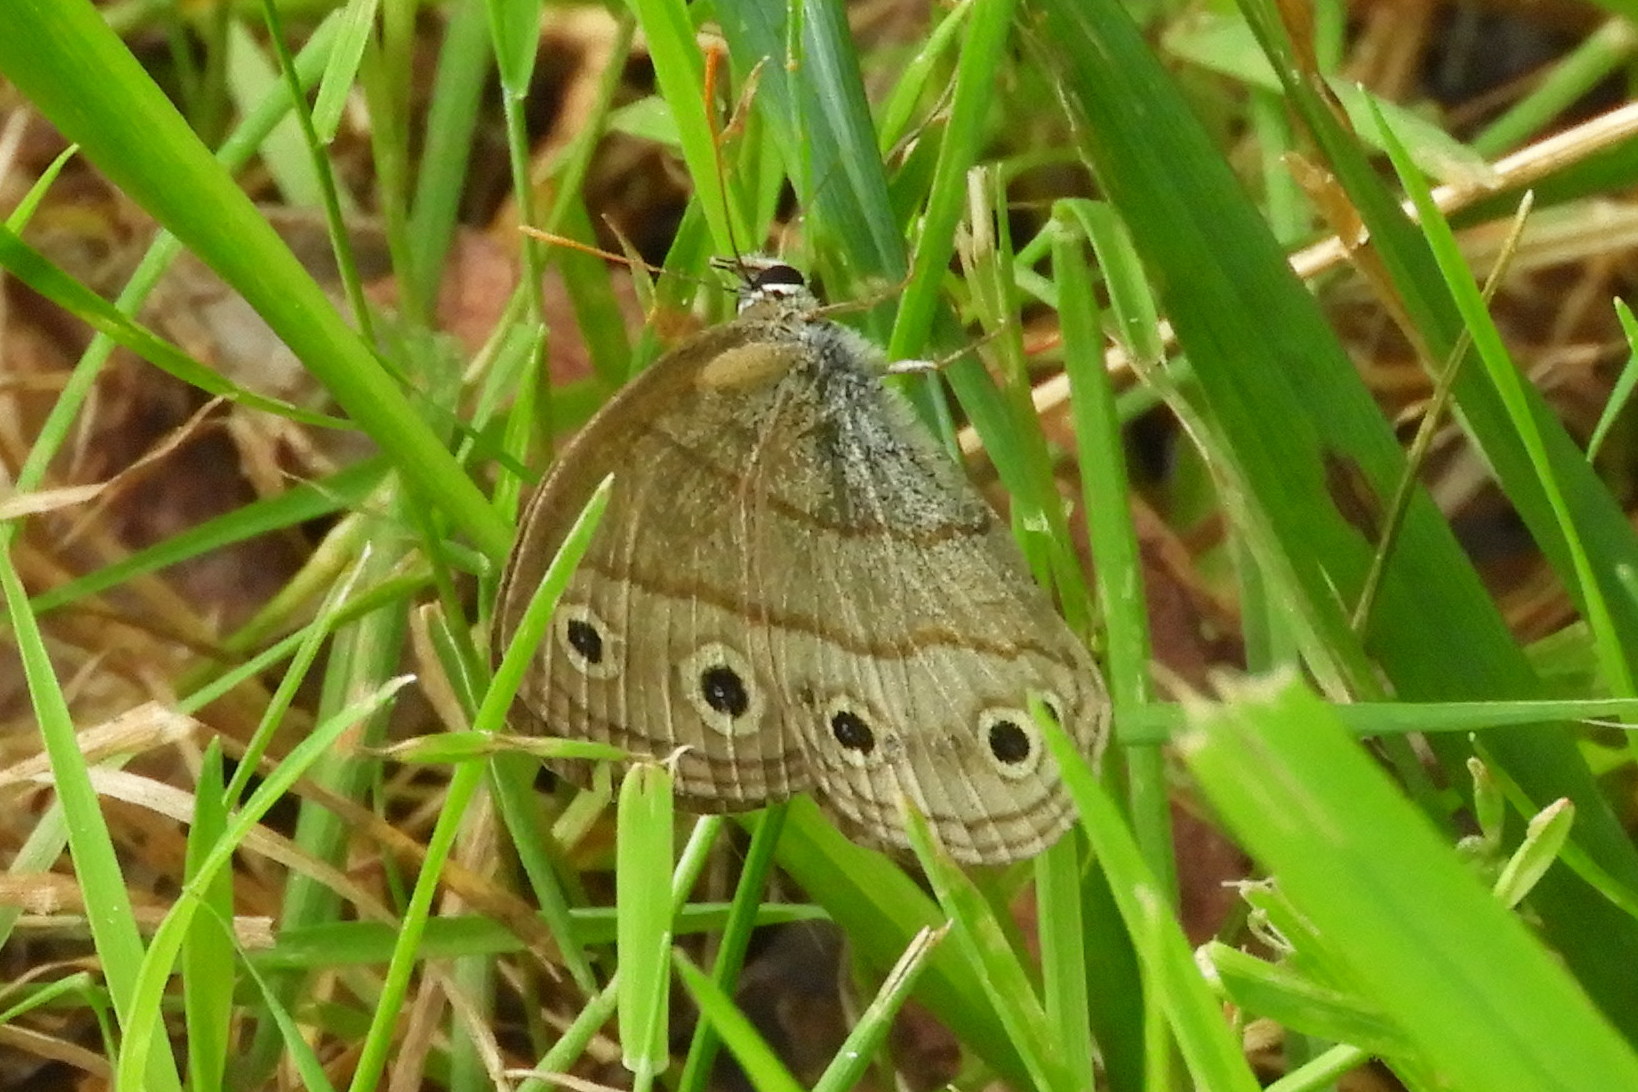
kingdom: Animalia
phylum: Arthropoda
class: Insecta
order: Lepidoptera
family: Nymphalidae
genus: Euptychia
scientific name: Euptychia cymela
